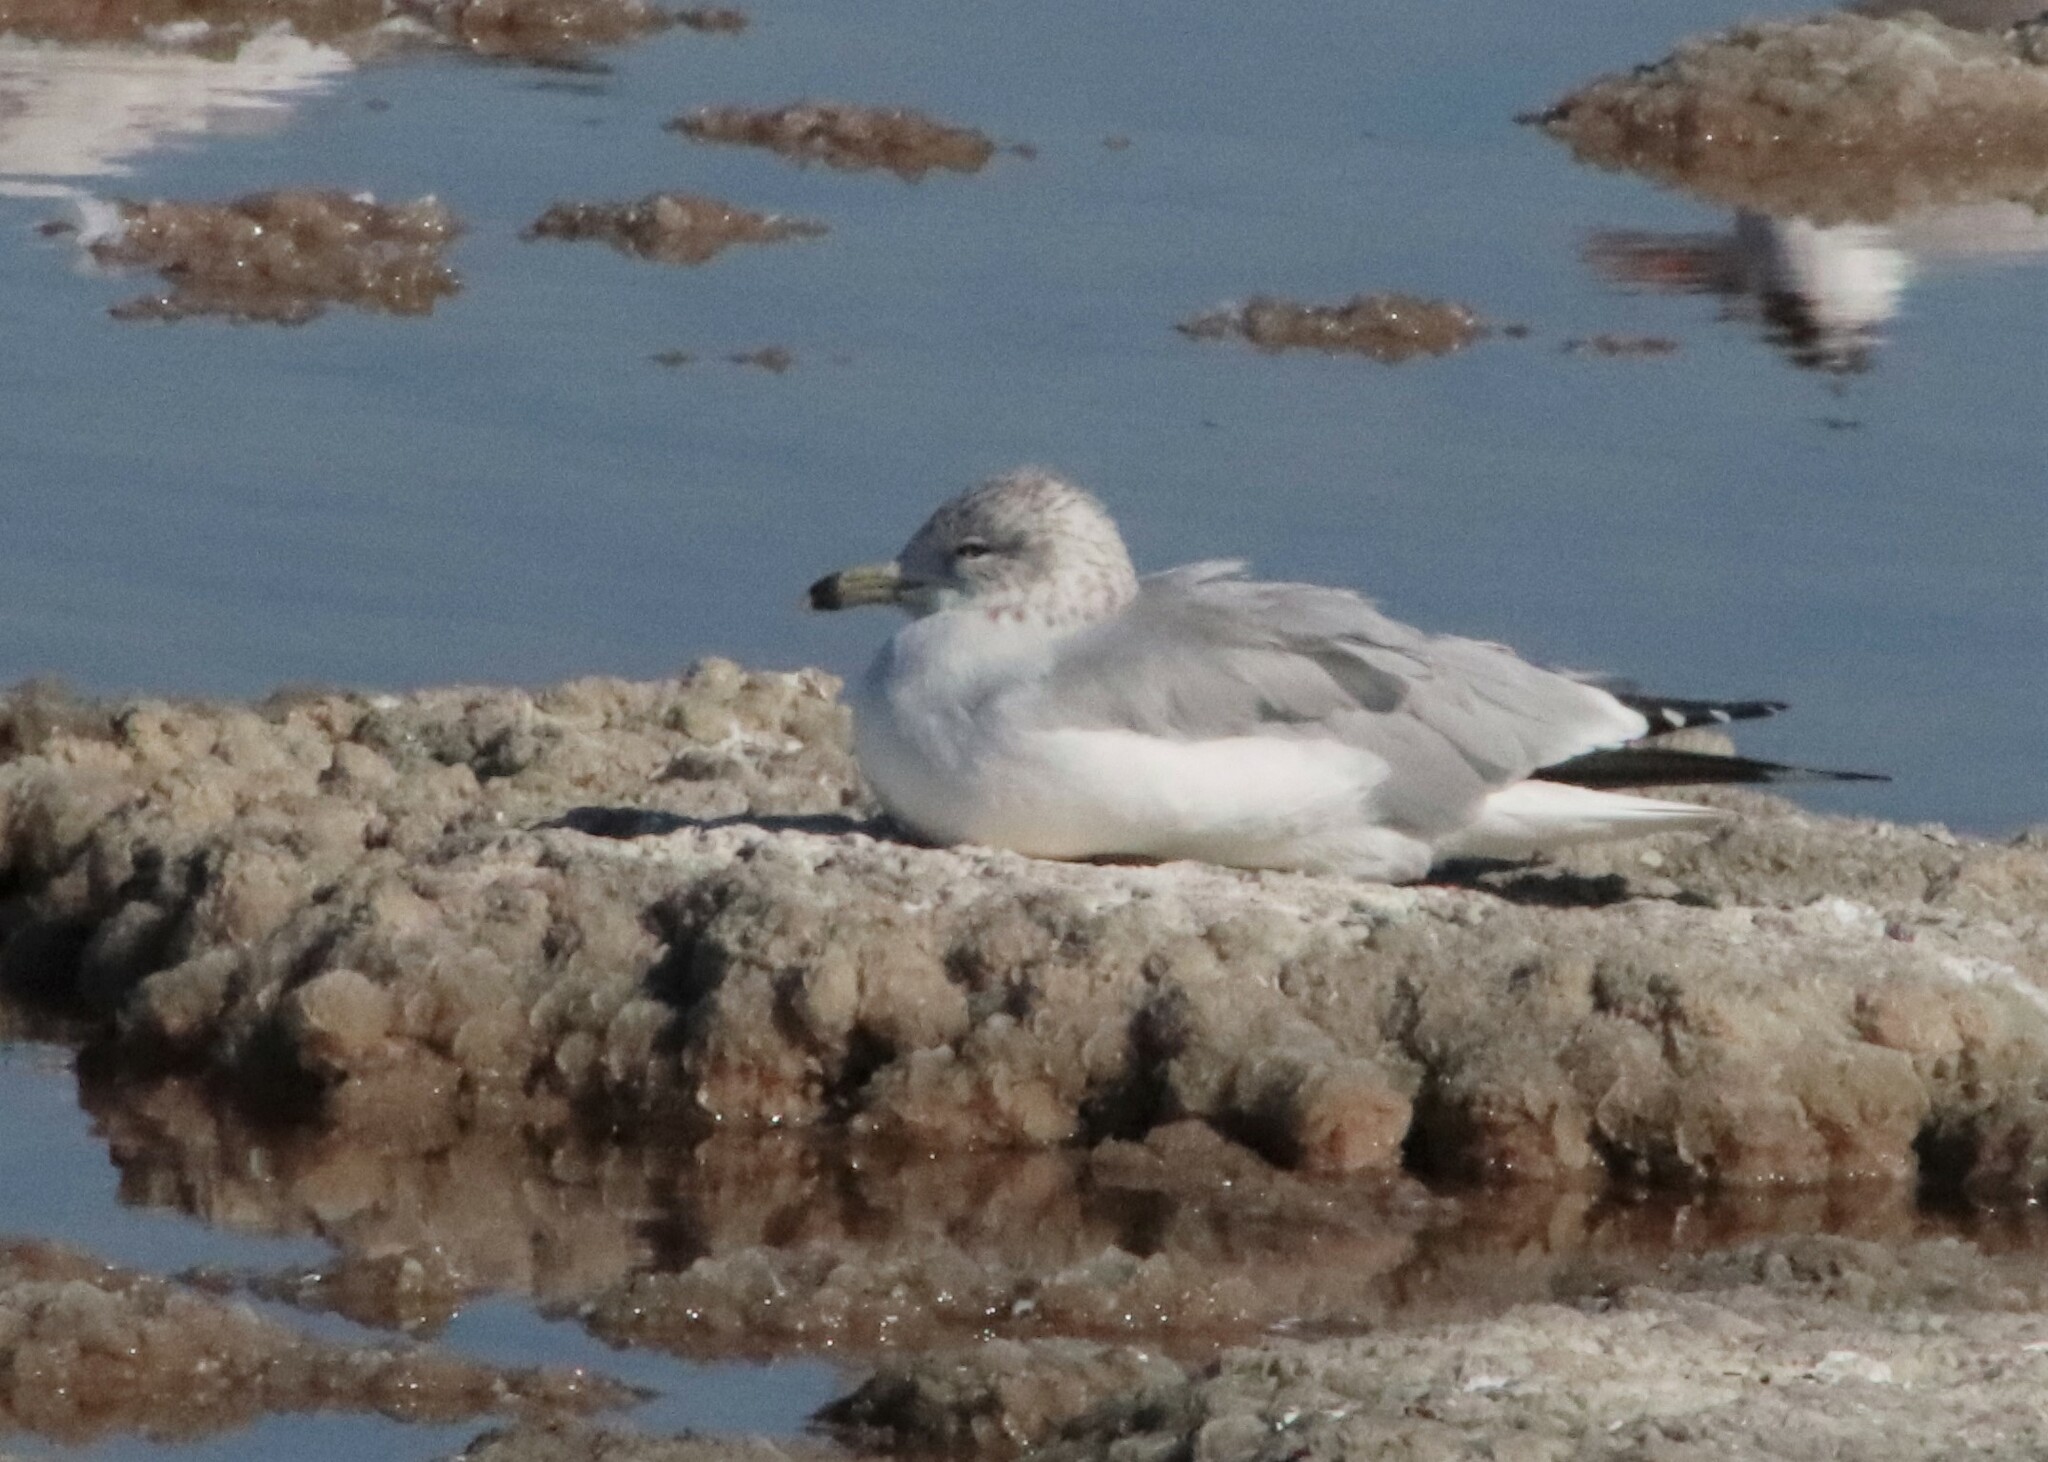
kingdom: Animalia
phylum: Chordata
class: Aves
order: Charadriiformes
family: Laridae
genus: Larus
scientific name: Larus delawarensis
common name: Ring-billed gull
